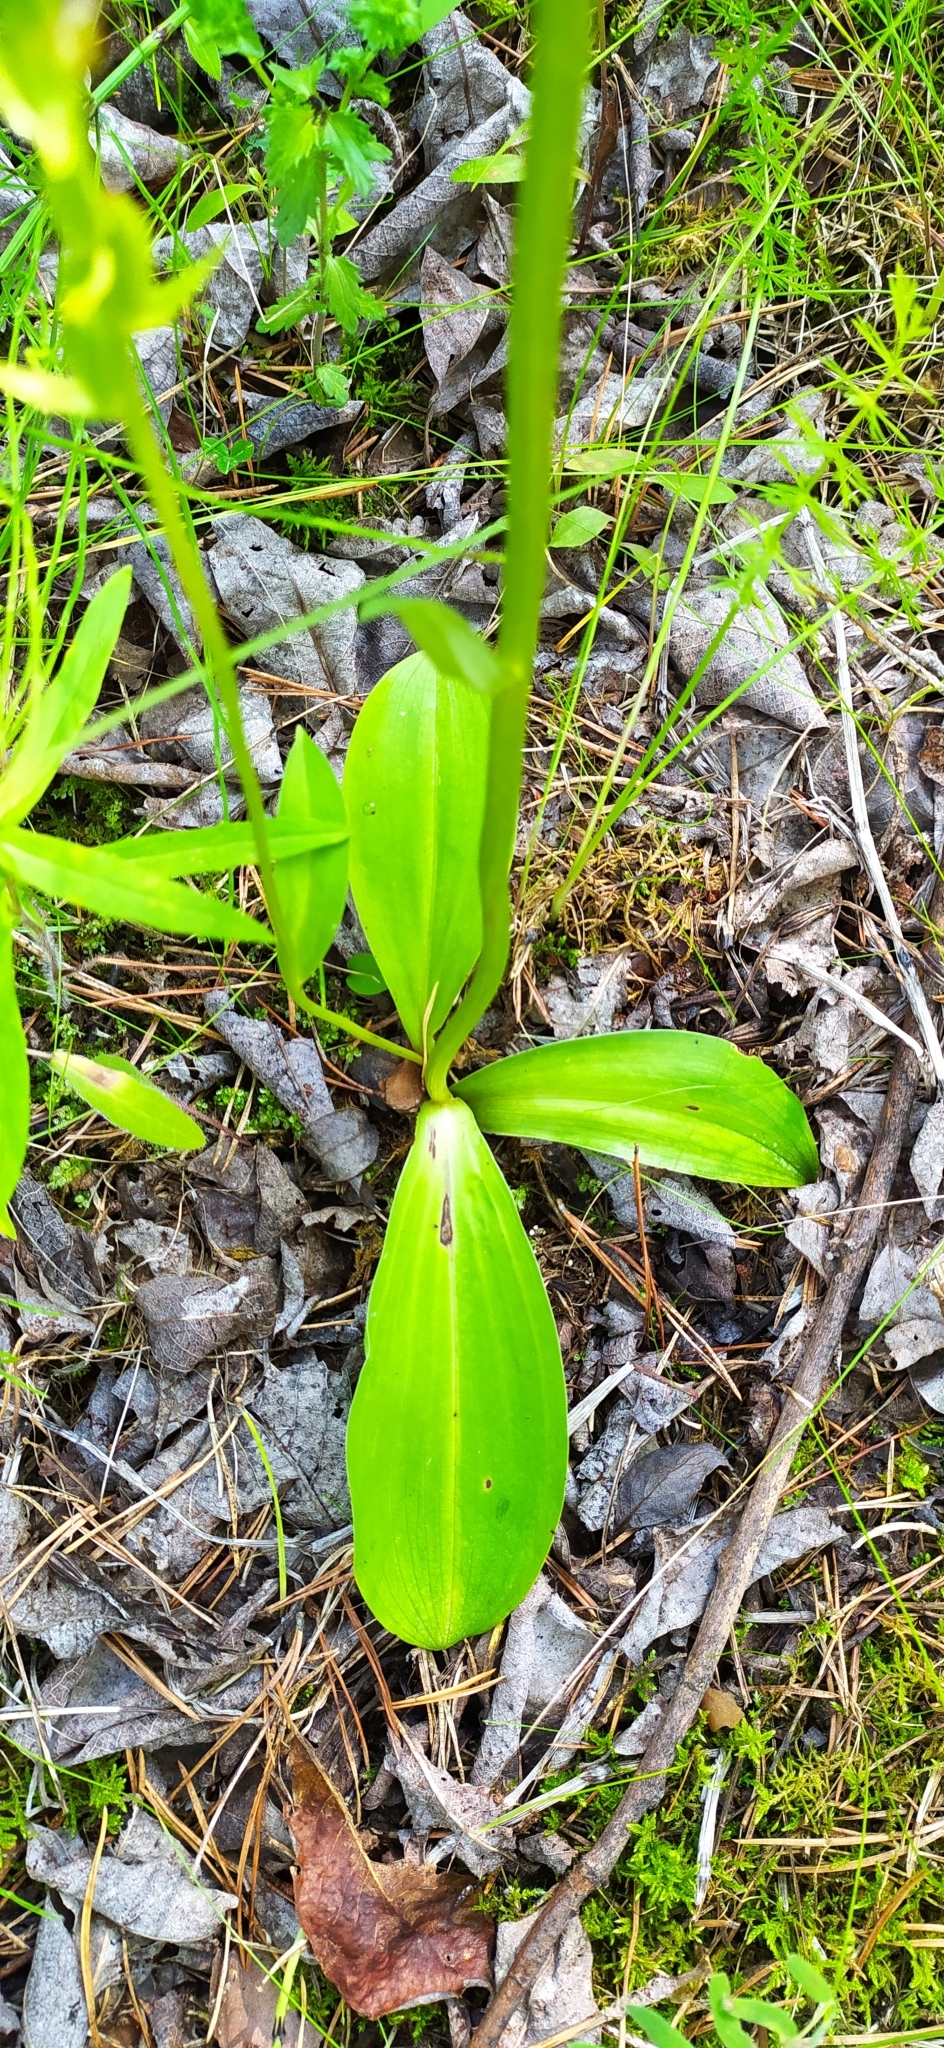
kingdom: Plantae
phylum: Tracheophyta
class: Liliopsida
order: Asparagales
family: Orchidaceae
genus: Platanthera
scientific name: Platanthera bifolia
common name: Lesser butterfly-orchid
